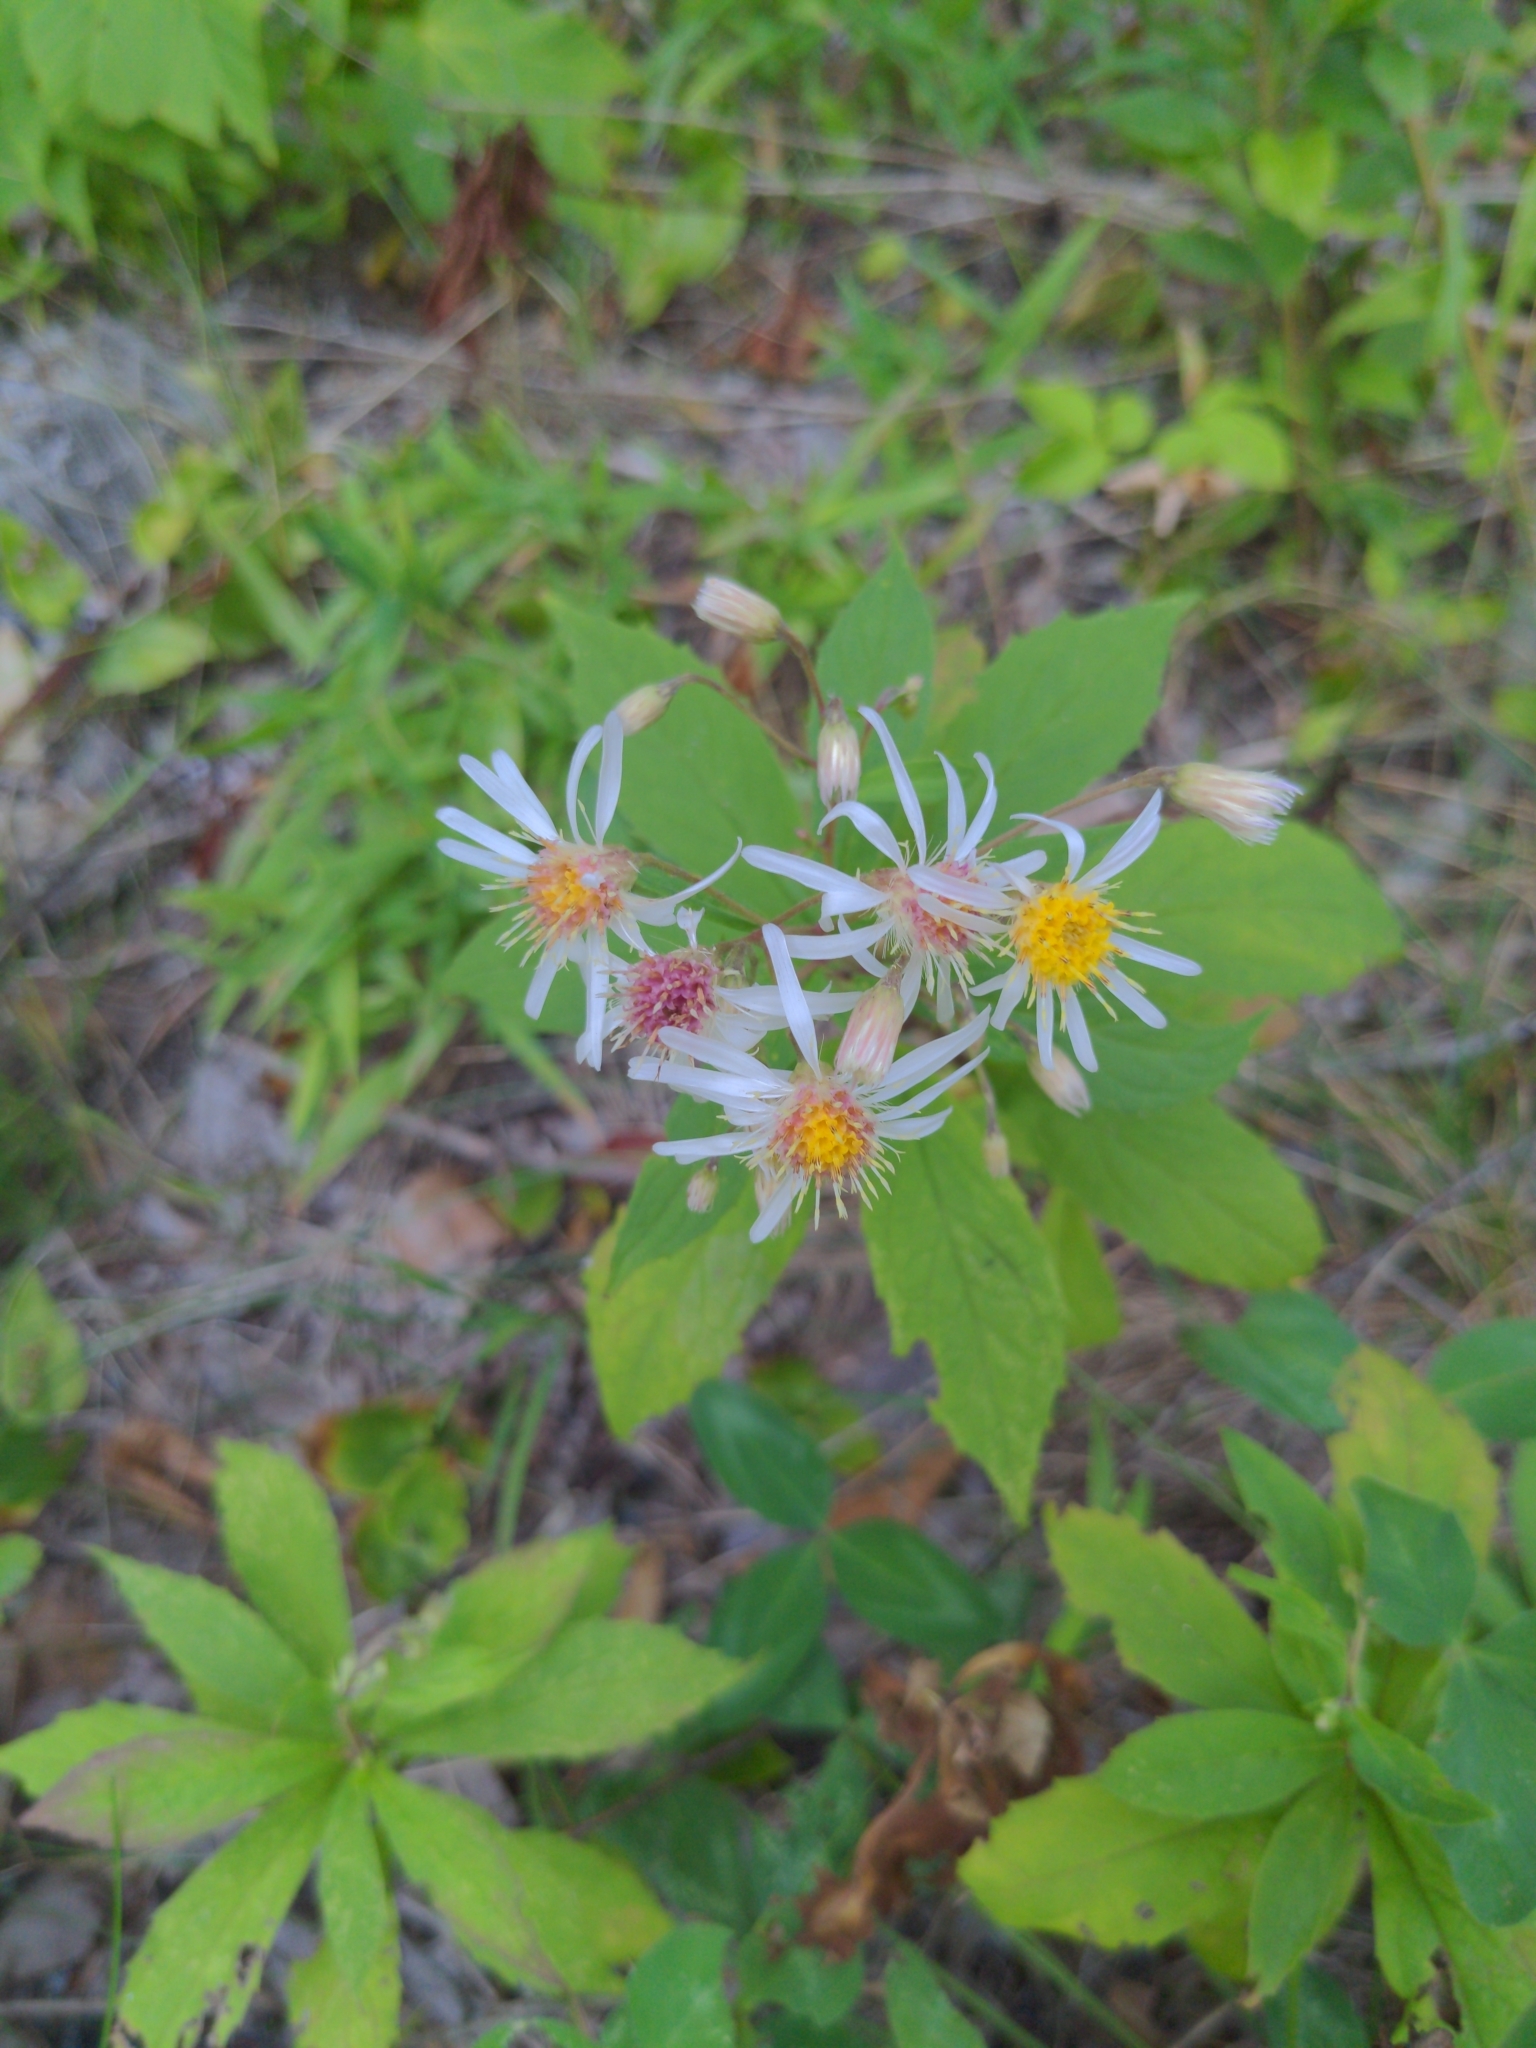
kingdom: Plantae
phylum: Tracheophyta
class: Magnoliopsida
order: Asterales
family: Asteraceae
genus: Oclemena
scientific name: Oclemena acuminata
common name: Mountain aster
